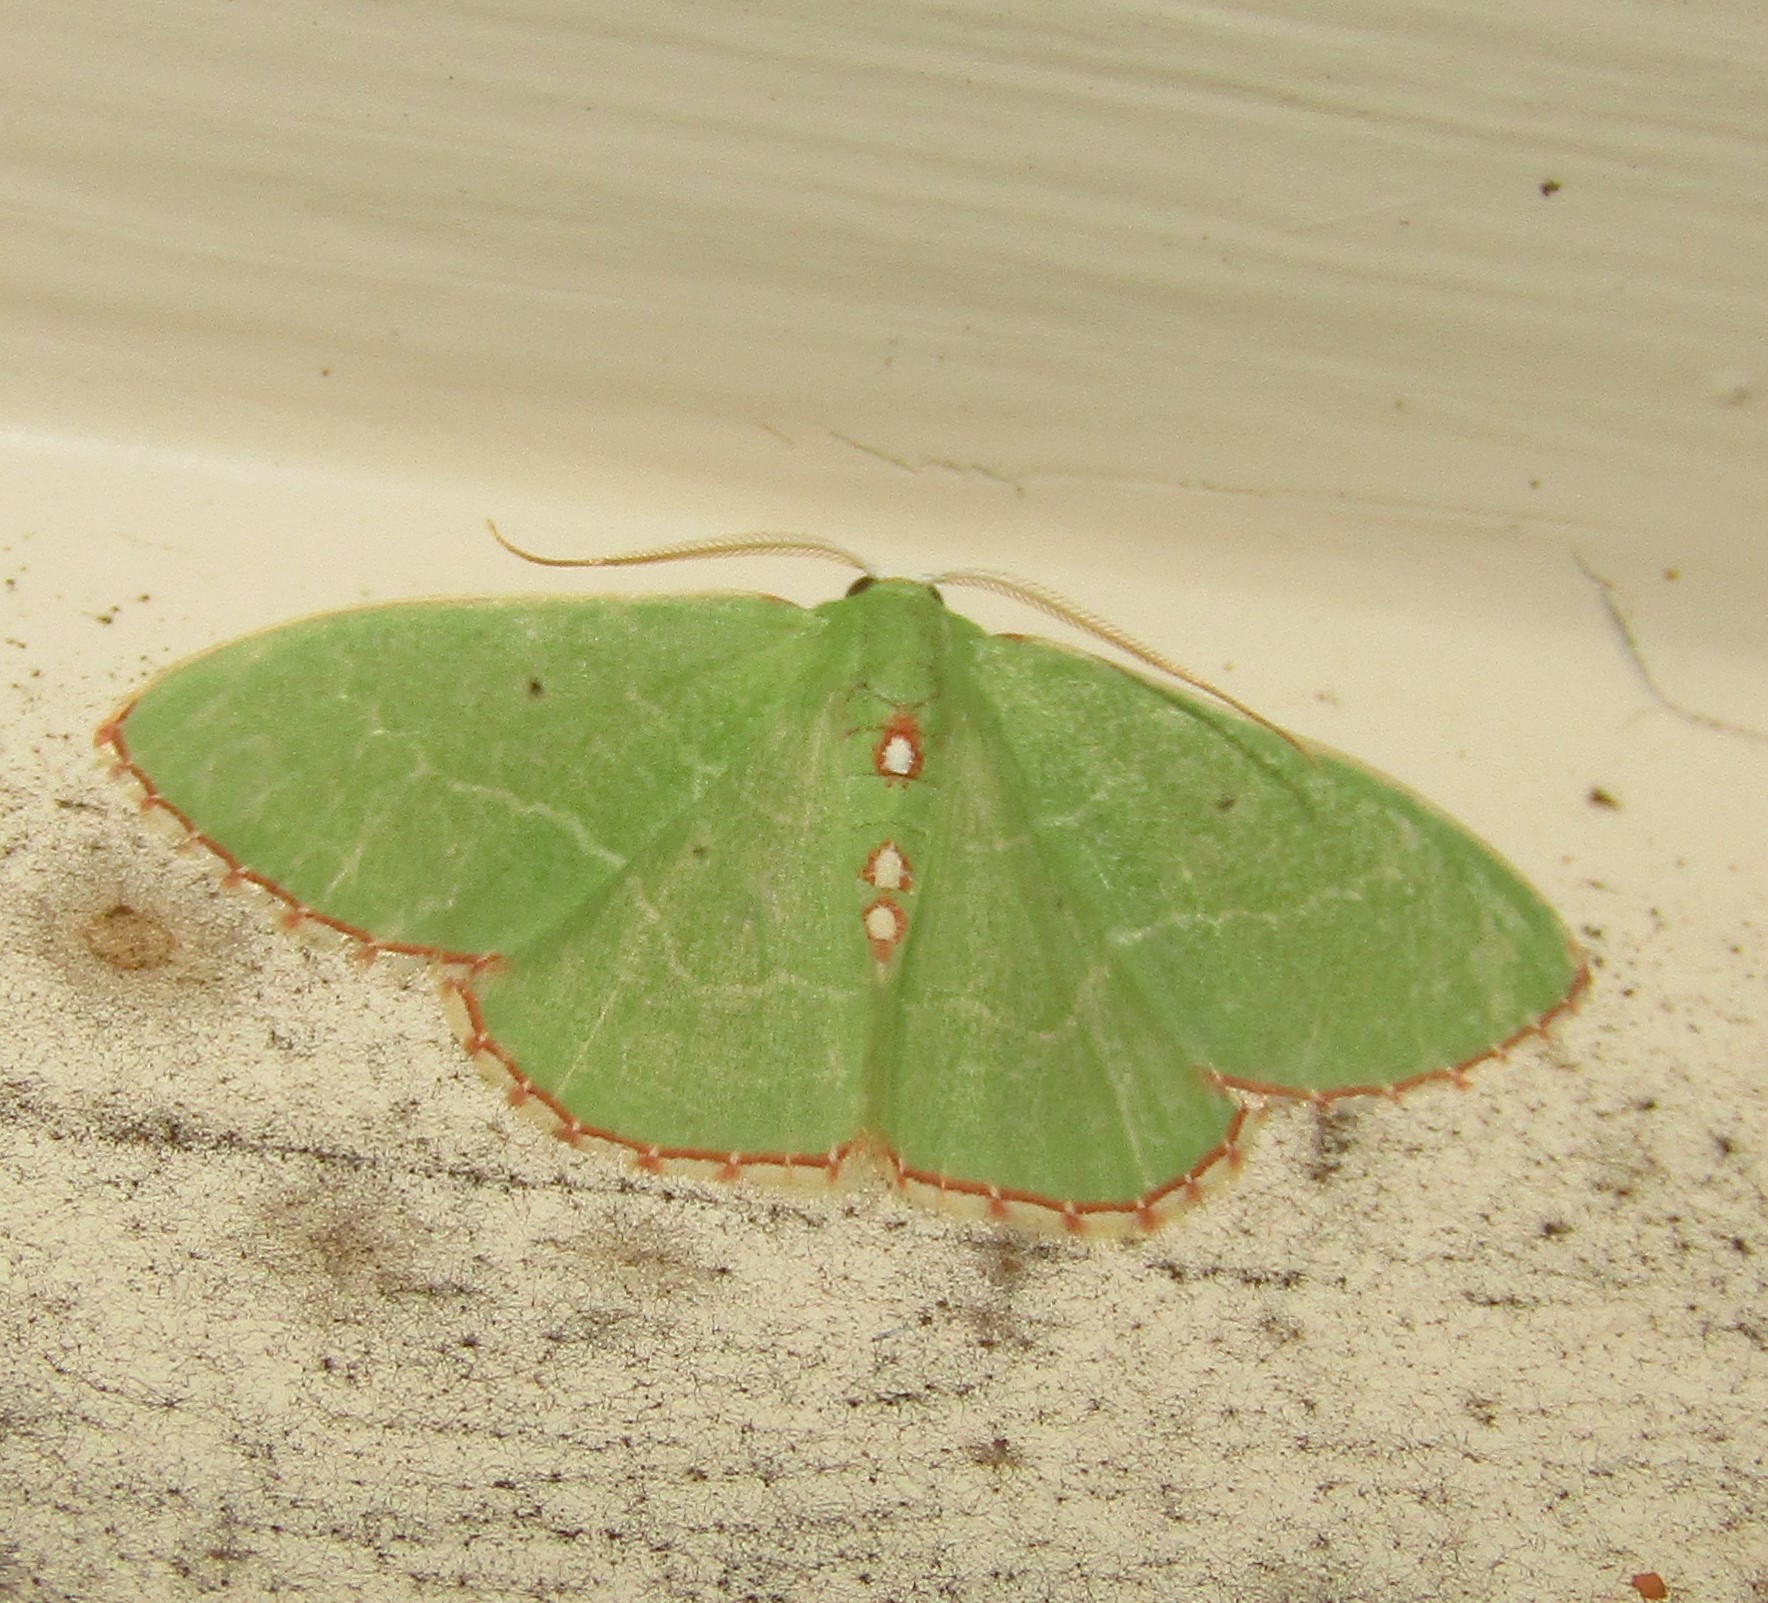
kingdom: Animalia
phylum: Arthropoda
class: Insecta
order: Lepidoptera
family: Geometridae
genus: Nemoria
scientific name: Nemoria lixaria
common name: Red-bordered emerald
